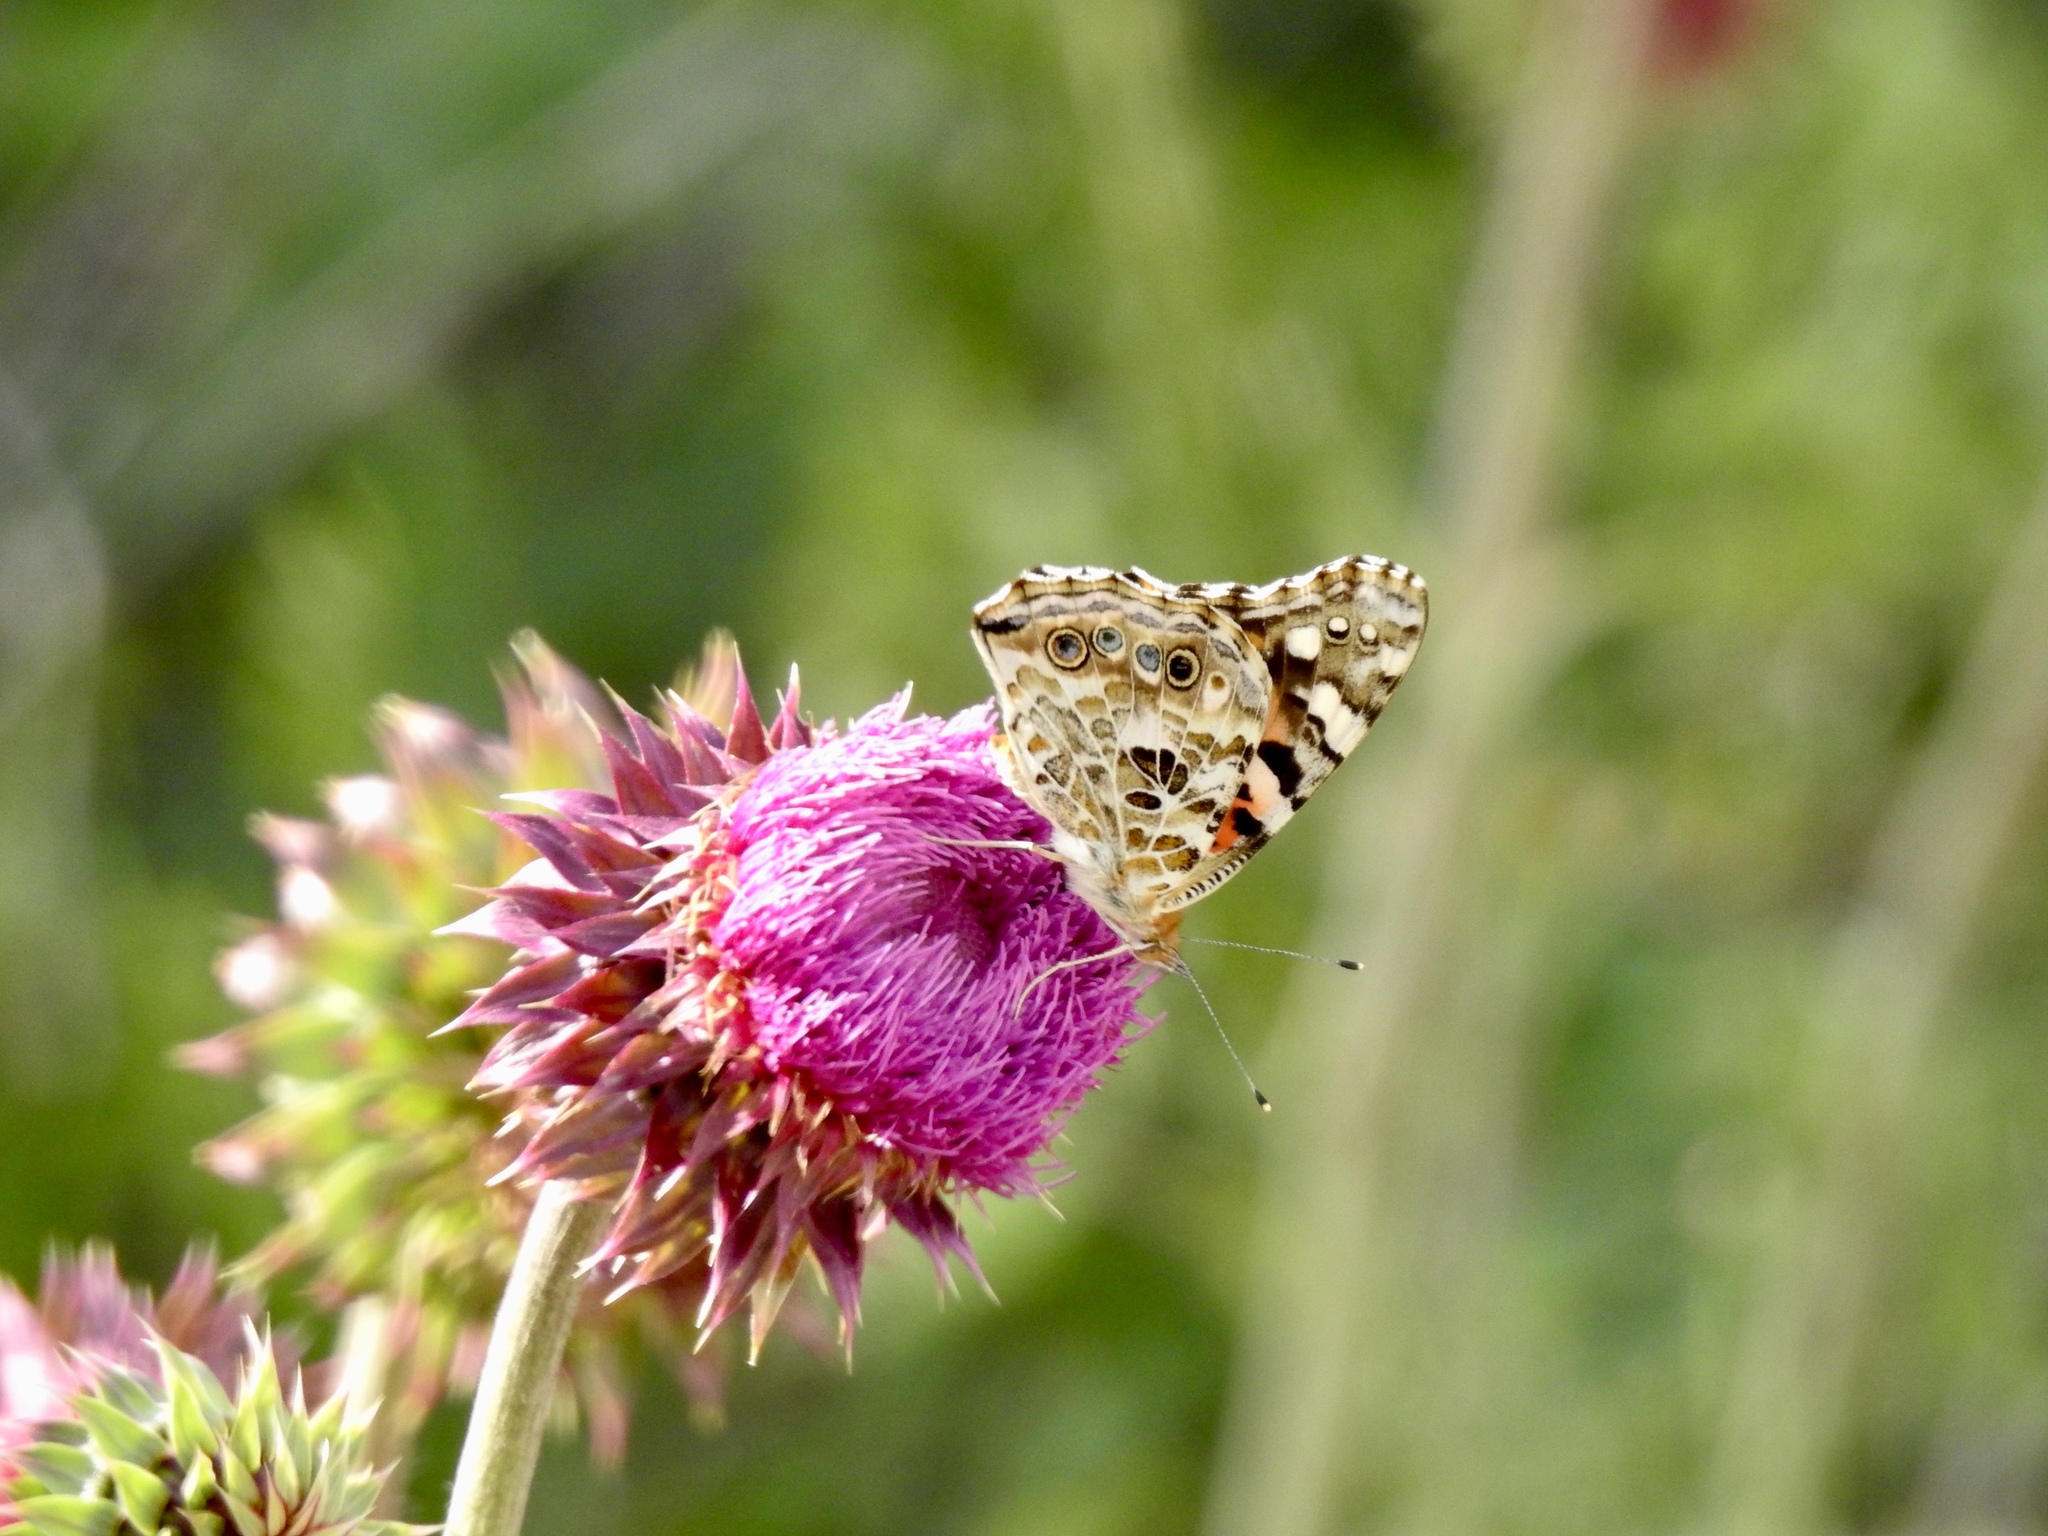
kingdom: Animalia
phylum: Arthropoda
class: Insecta
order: Lepidoptera
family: Nymphalidae
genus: Vanessa
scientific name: Vanessa cardui
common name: Painted lady
